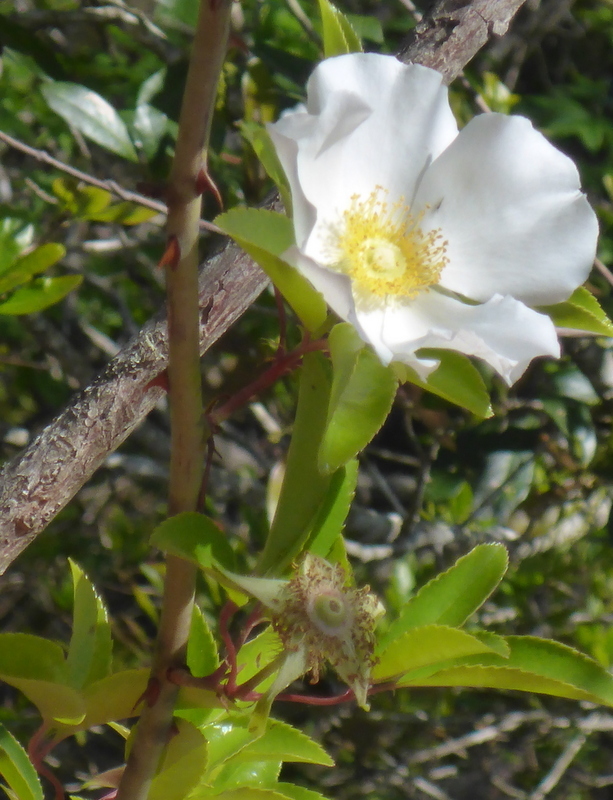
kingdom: Plantae
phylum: Tracheophyta
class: Magnoliopsida
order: Rosales
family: Rosaceae
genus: Rosa
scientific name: Rosa laevigata
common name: Cherokee rose
